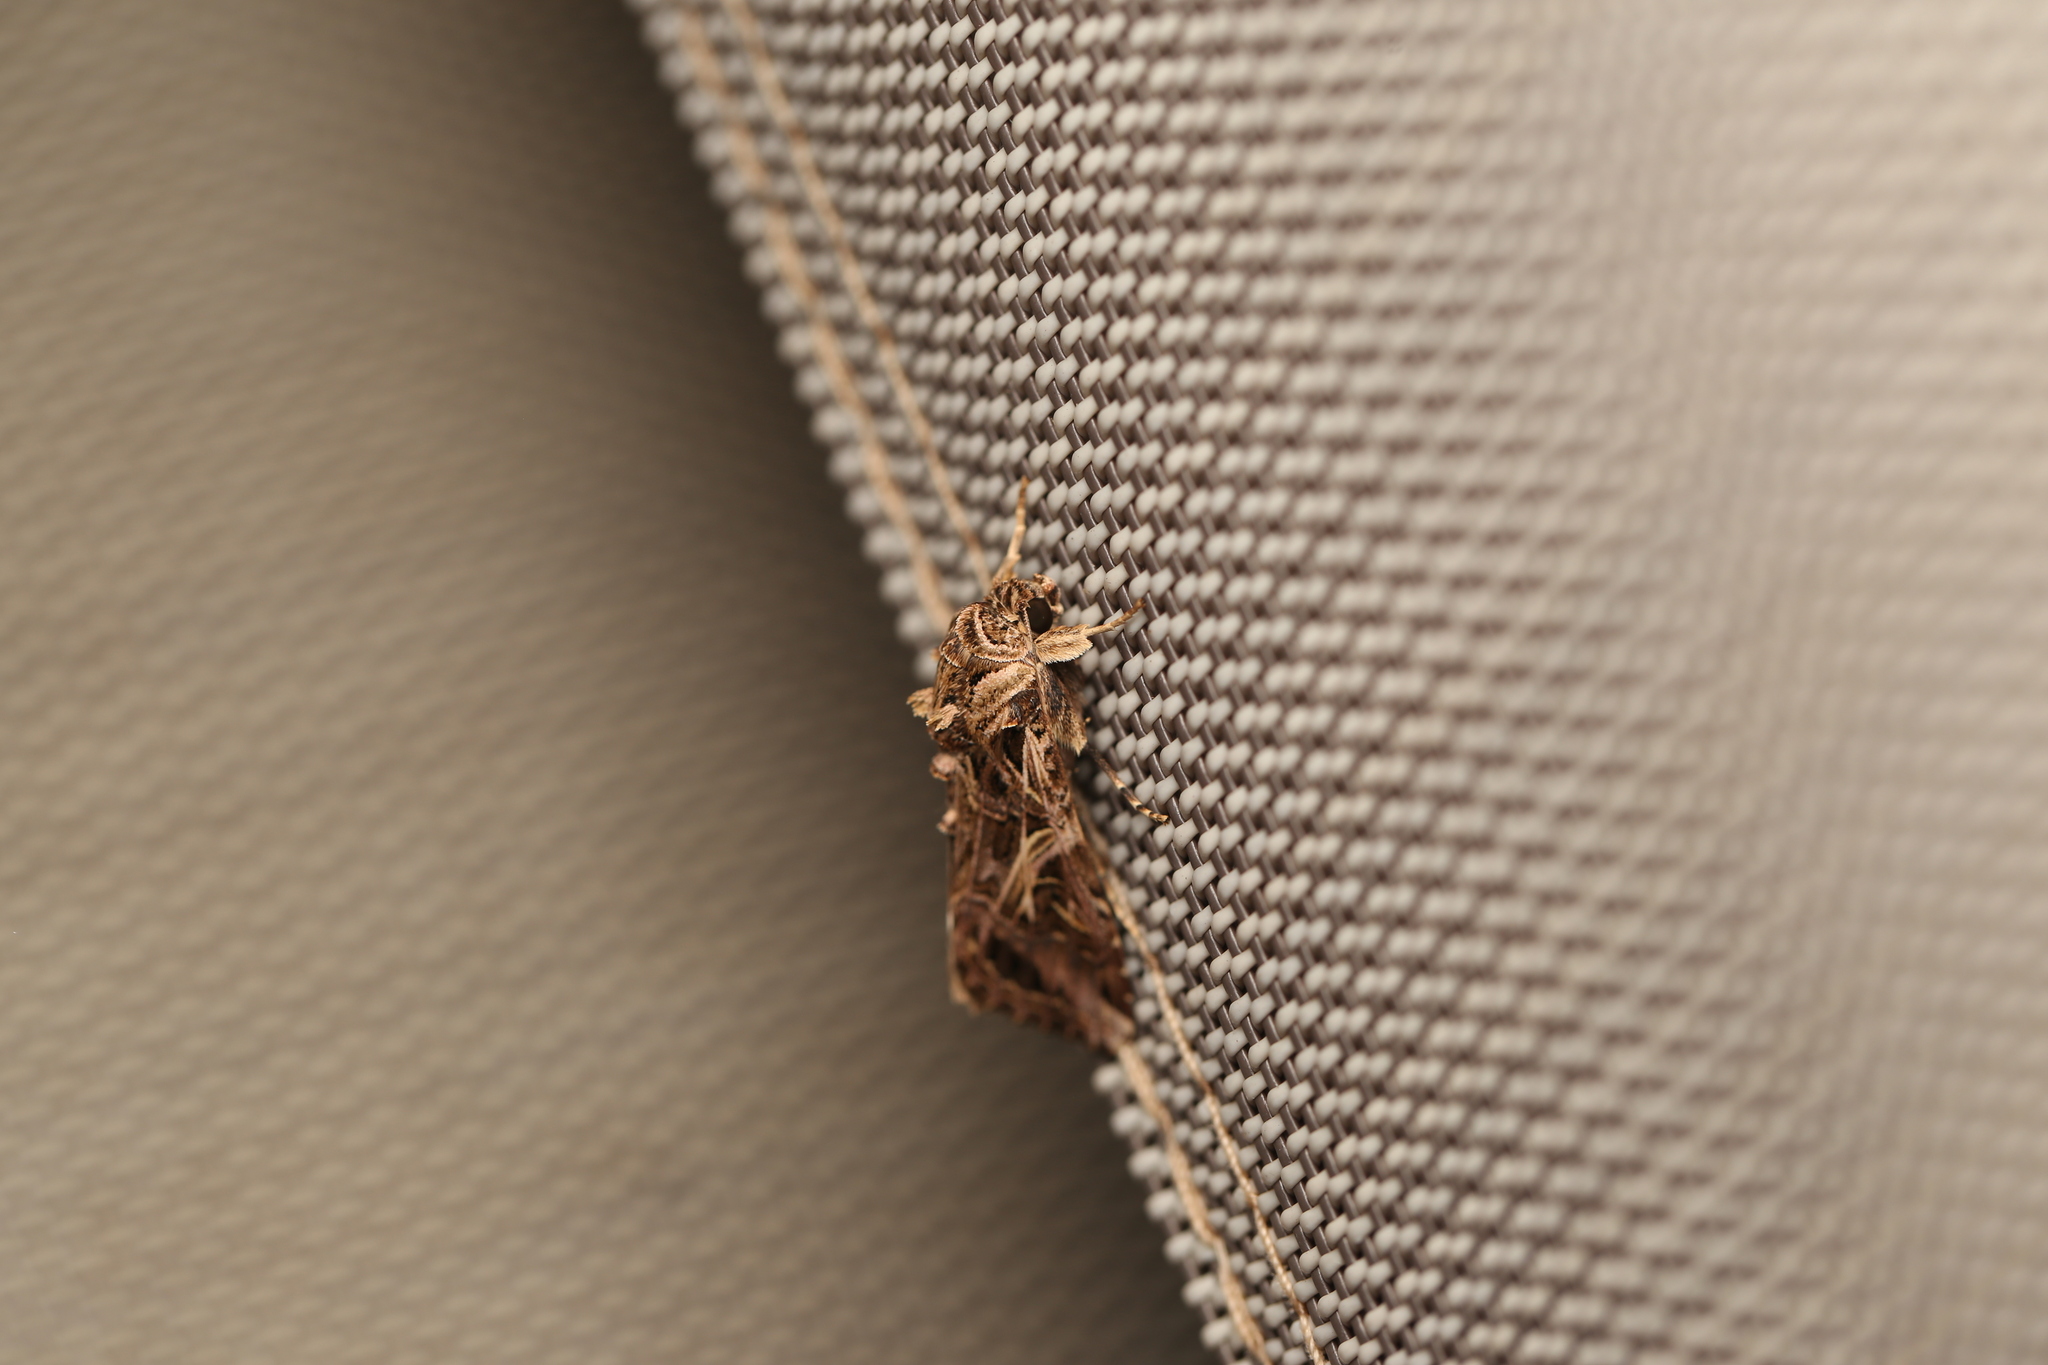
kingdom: Animalia
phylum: Arthropoda
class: Insecta
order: Lepidoptera
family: Noctuidae
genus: Spodoptera
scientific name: Spodoptera litura
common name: Asian cotton leafworm
